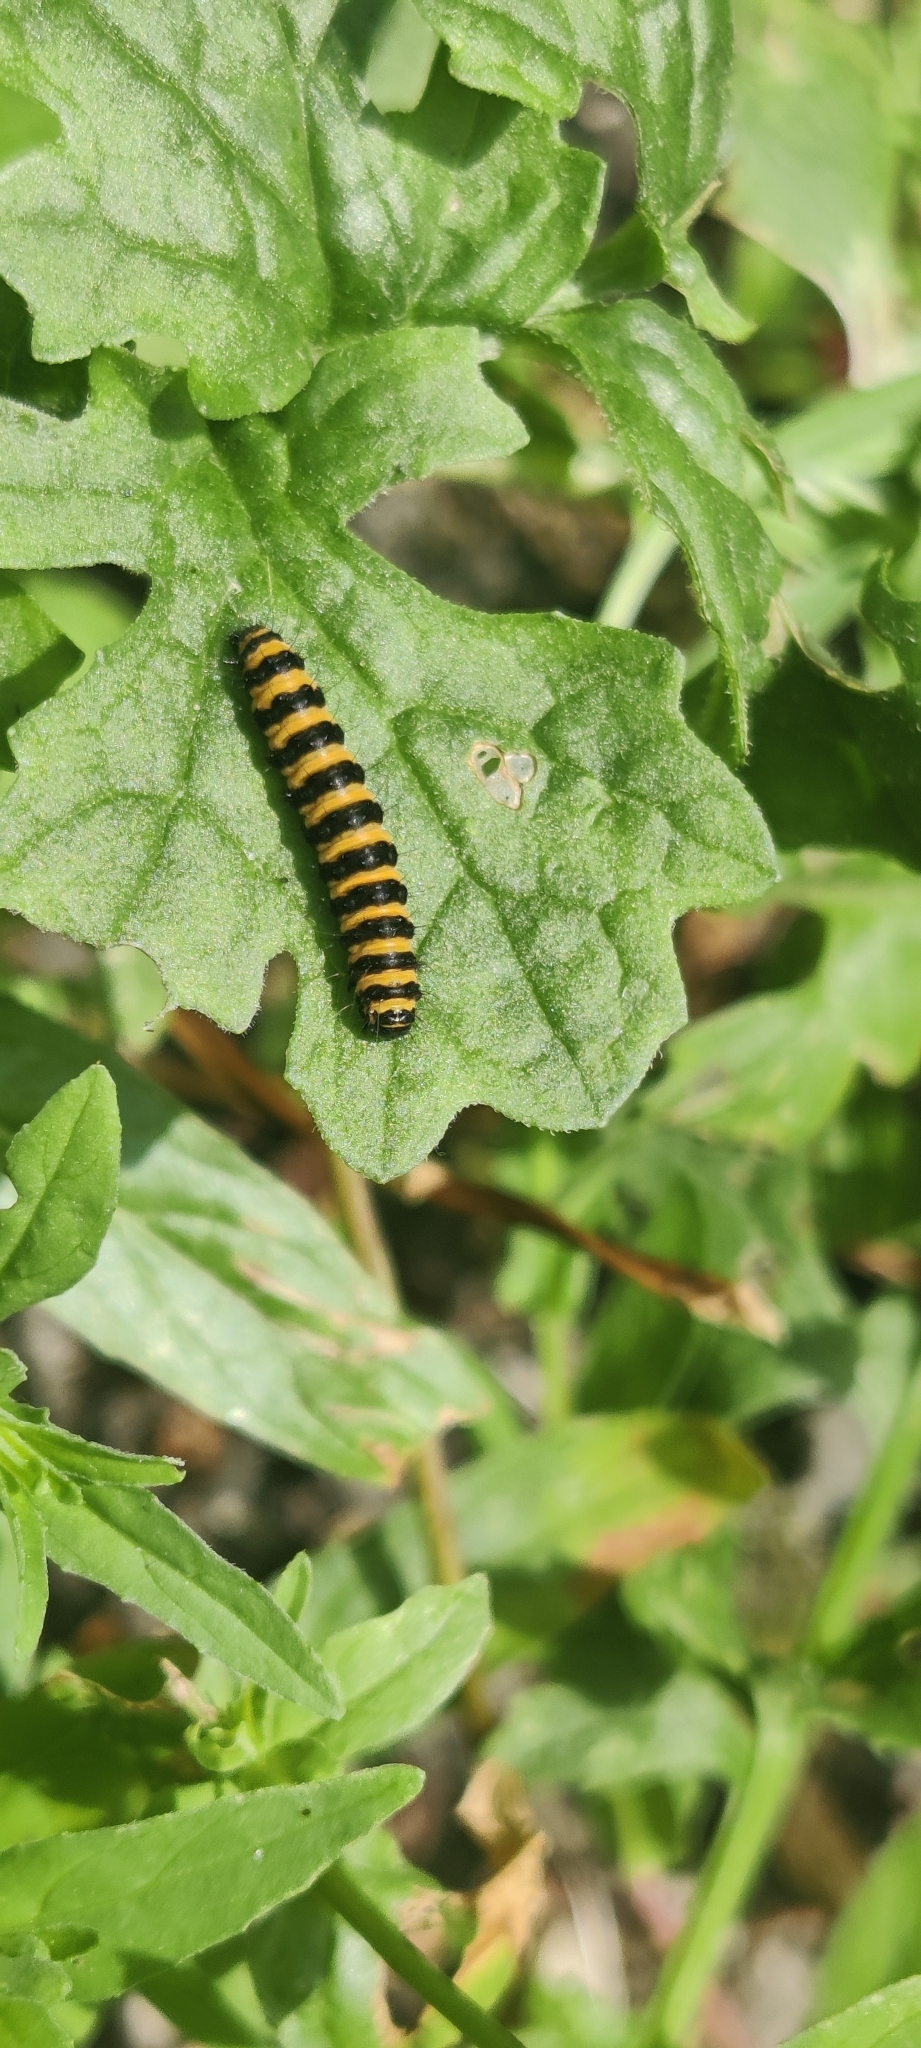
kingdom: Animalia
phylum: Arthropoda
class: Insecta
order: Lepidoptera
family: Erebidae
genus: Tyria
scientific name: Tyria jacobaeae
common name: Cinnabar
